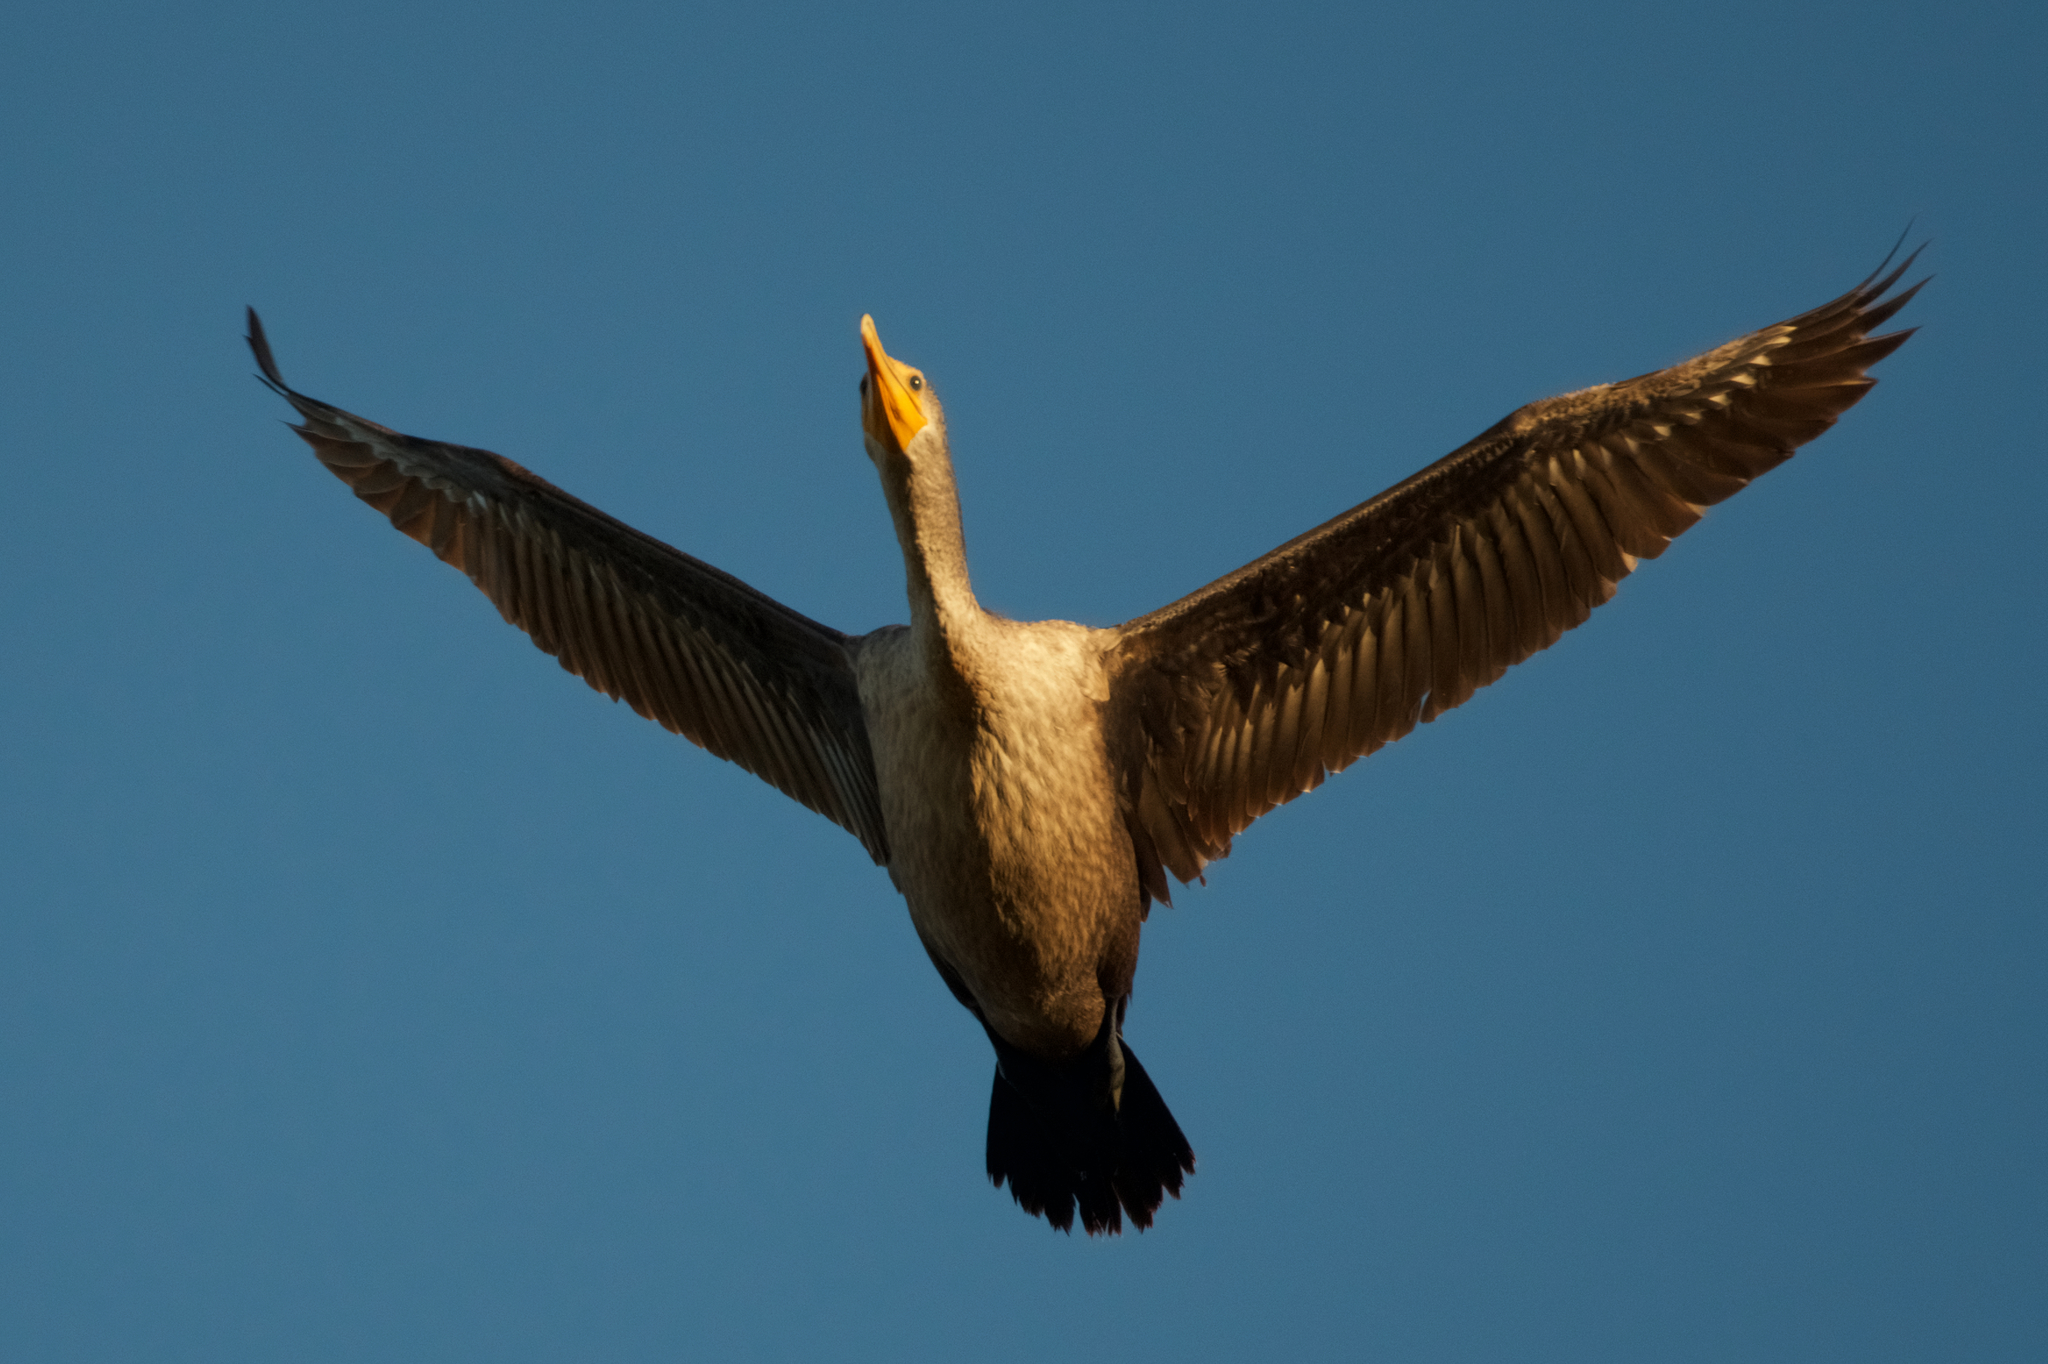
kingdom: Animalia
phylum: Chordata
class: Aves
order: Suliformes
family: Phalacrocoracidae
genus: Phalacrocorax
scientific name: Phalacrocorax auritus
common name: Double-crested cormorant
